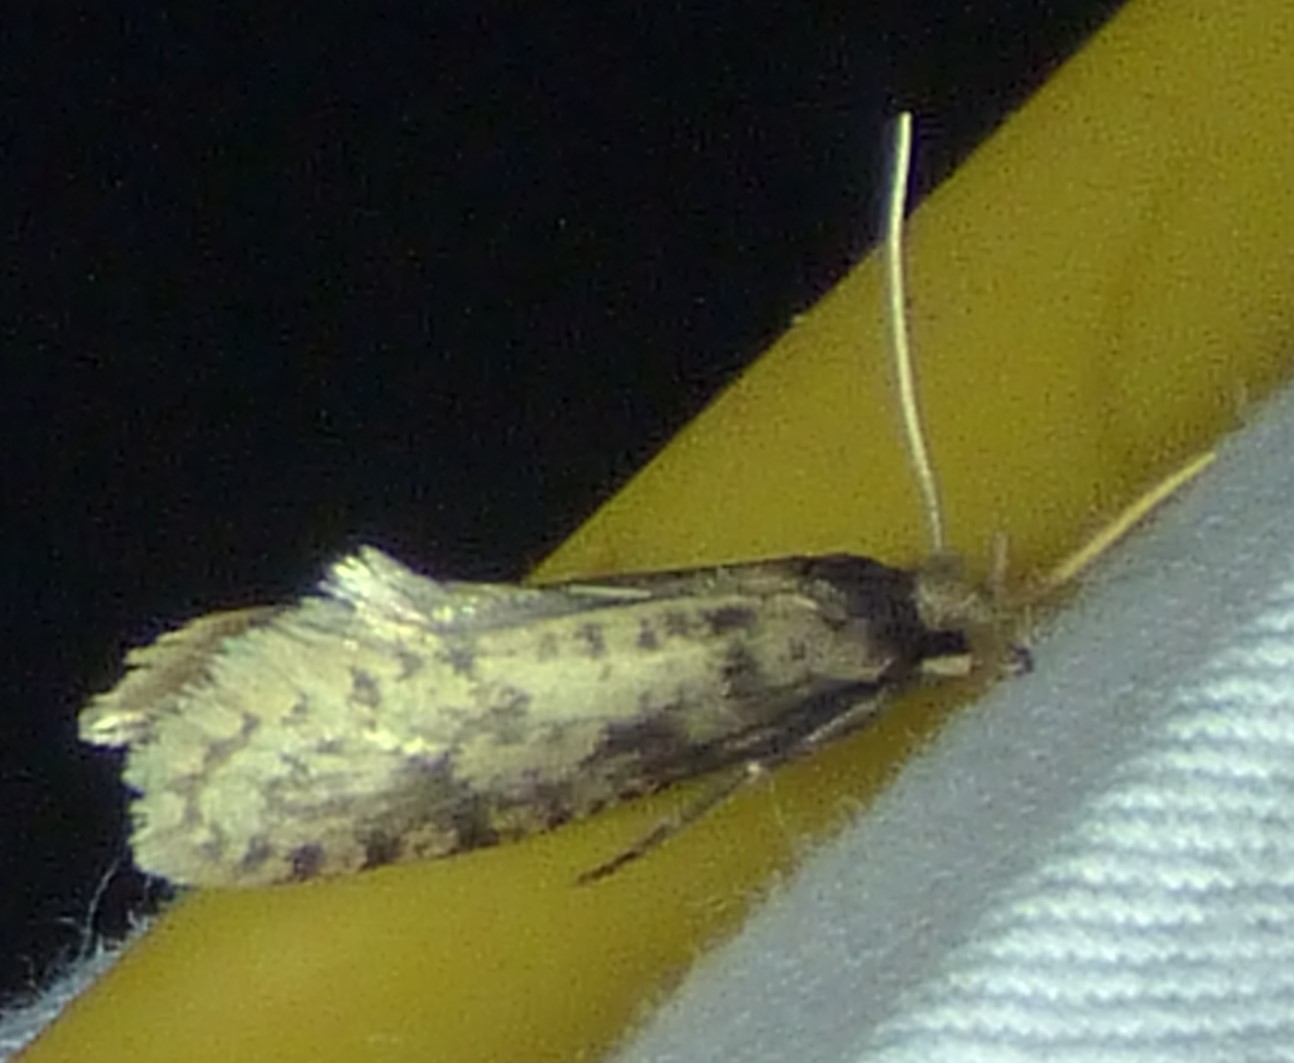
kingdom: Animalia
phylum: Arthropoda
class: Insecta
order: Lepidoptera
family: Tineidae
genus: Amydria
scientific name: Amydria effrentella
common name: Brown-blotched amydria moth
